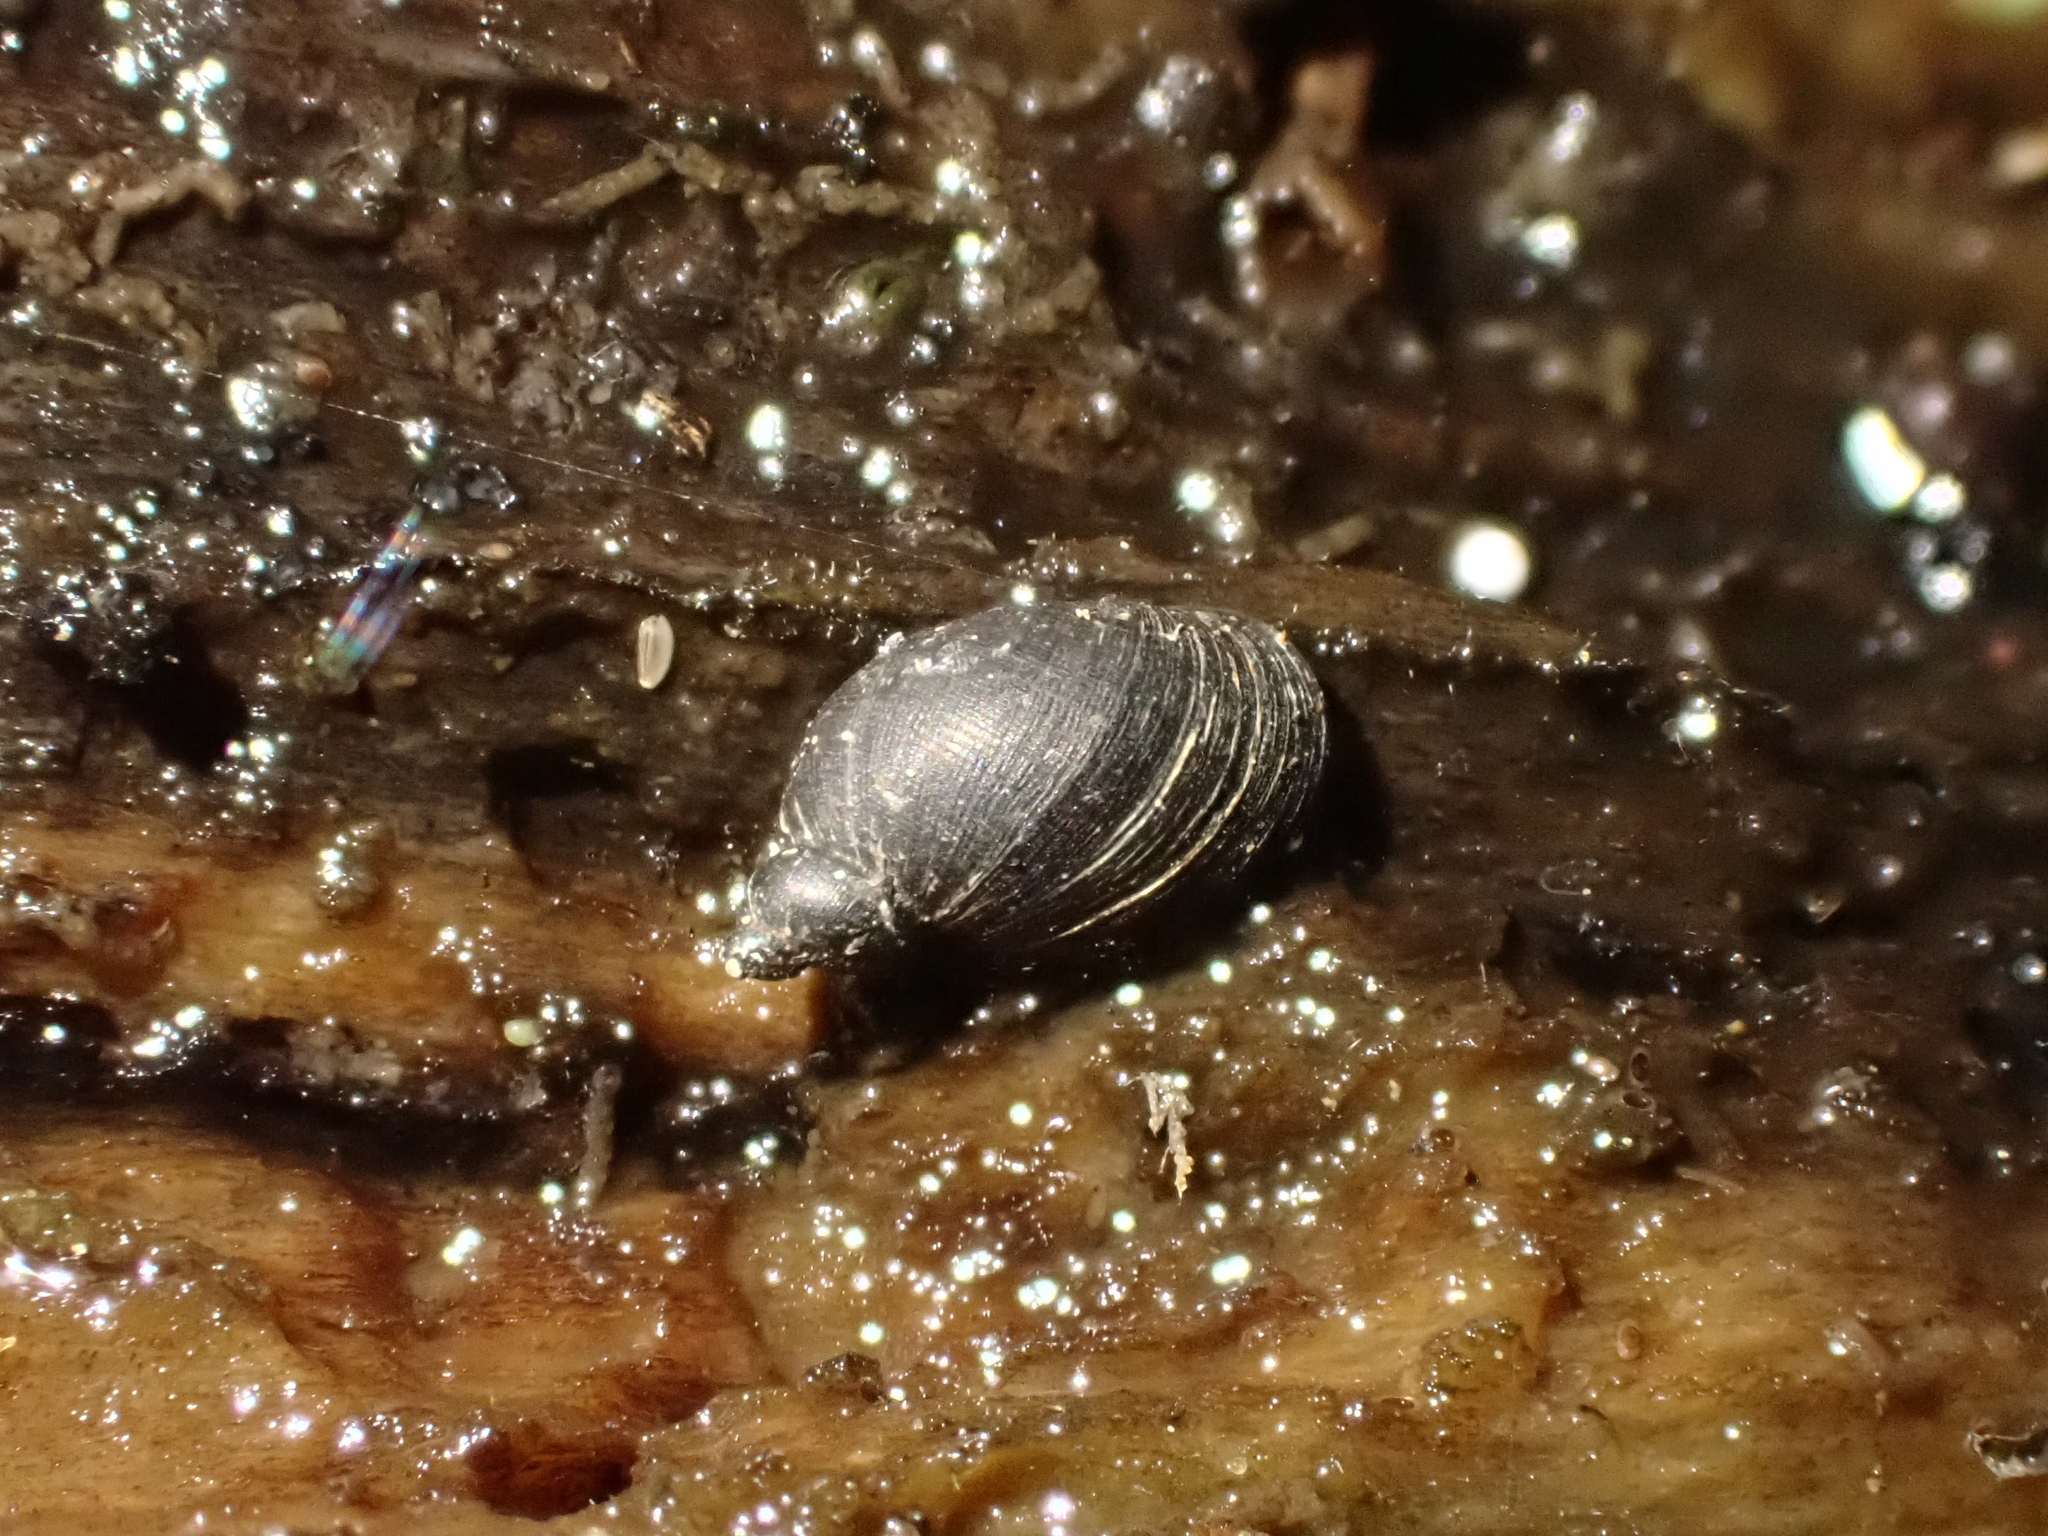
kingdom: Animalia
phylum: Mollusca
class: Gastropoda
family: Lymnaeidae
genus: Pseudosuccinea
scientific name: Pseudosuccinea columella
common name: Mimic lymnaea
